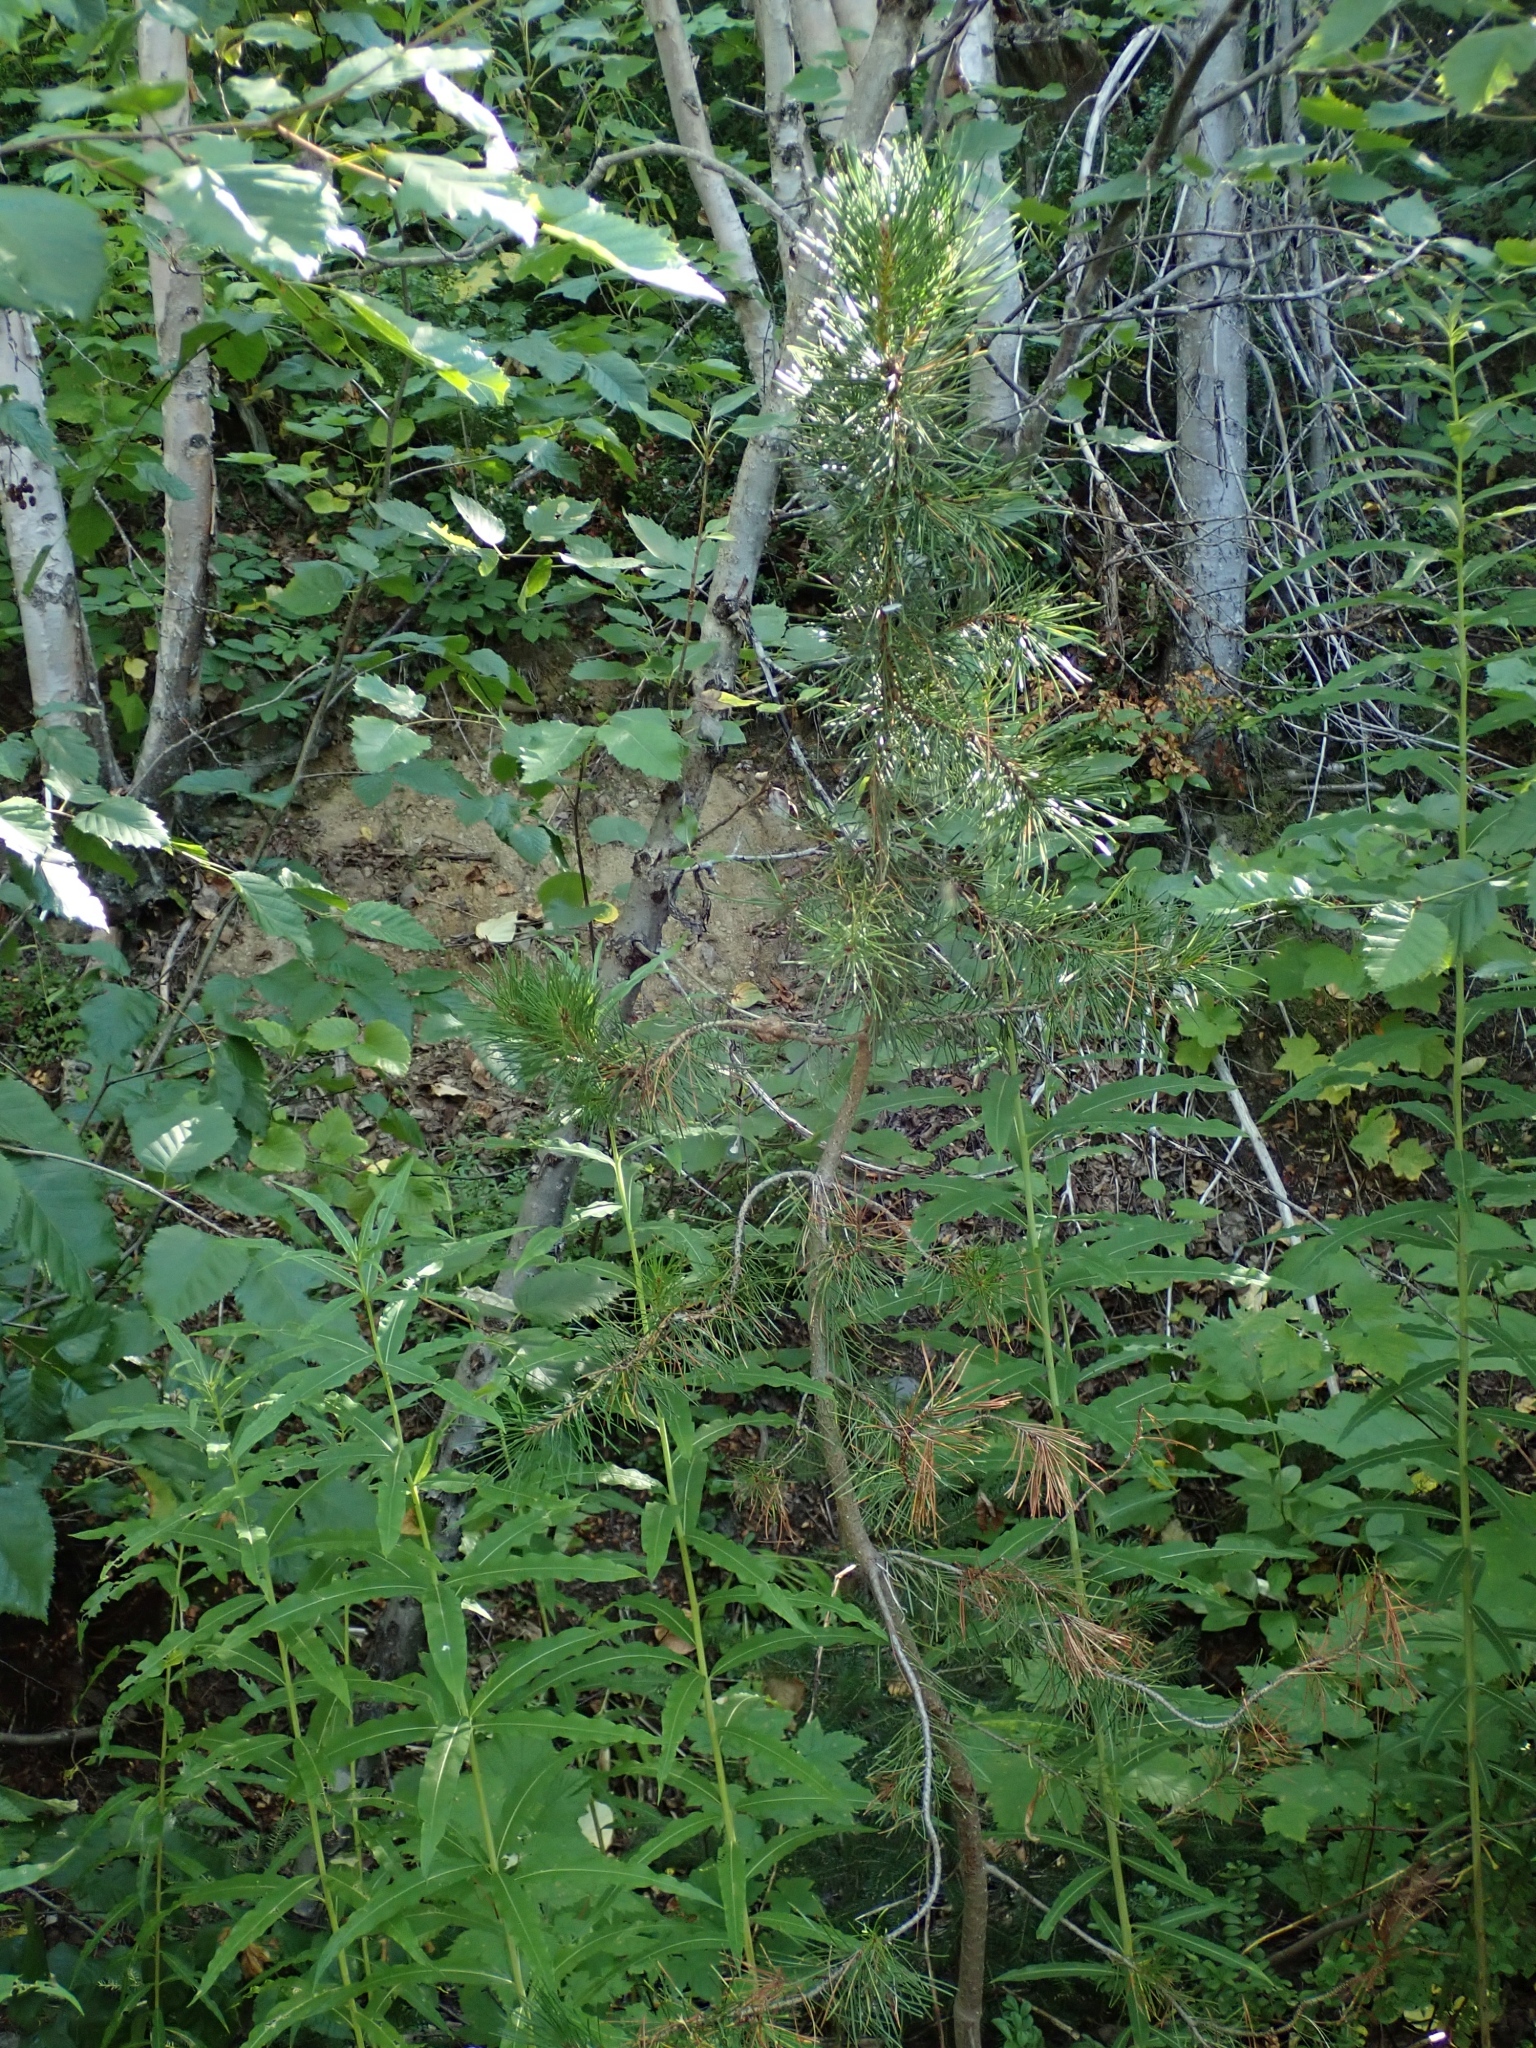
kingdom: Plantae
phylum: Tracheophyta
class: Pinopsida
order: Pinales
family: Pinaceae
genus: Pinus
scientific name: Pinus contorta
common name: Lodgepole pine
